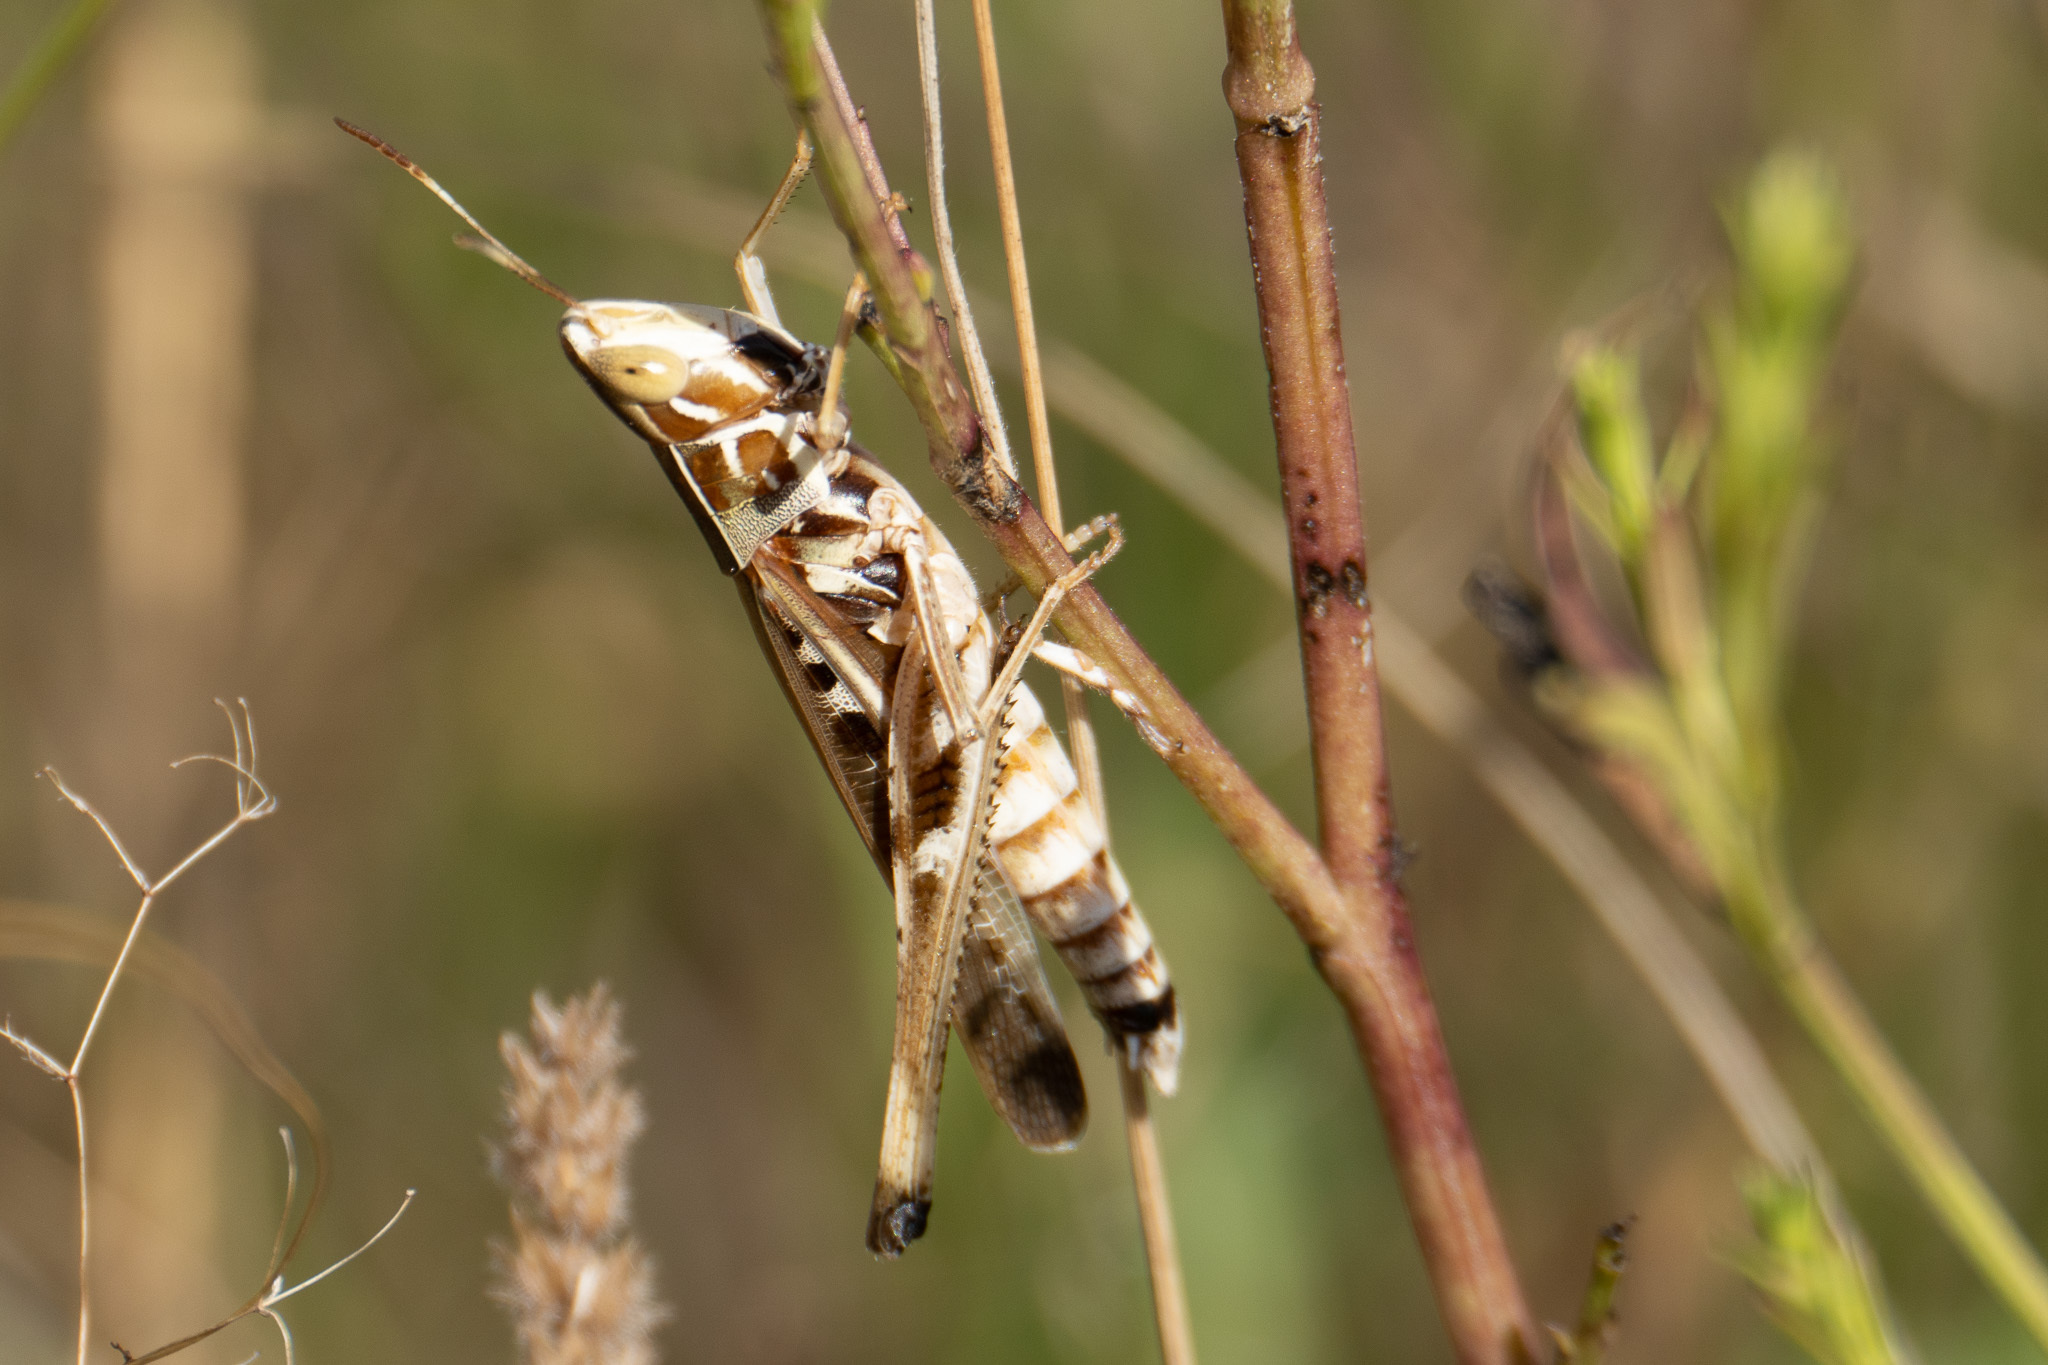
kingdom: Animalia
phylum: Arthropoda
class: Insecta
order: Orthoptera
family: Acrididae
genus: Syrbula
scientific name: Syrbula admirabilis
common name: Handsome grasshopper
